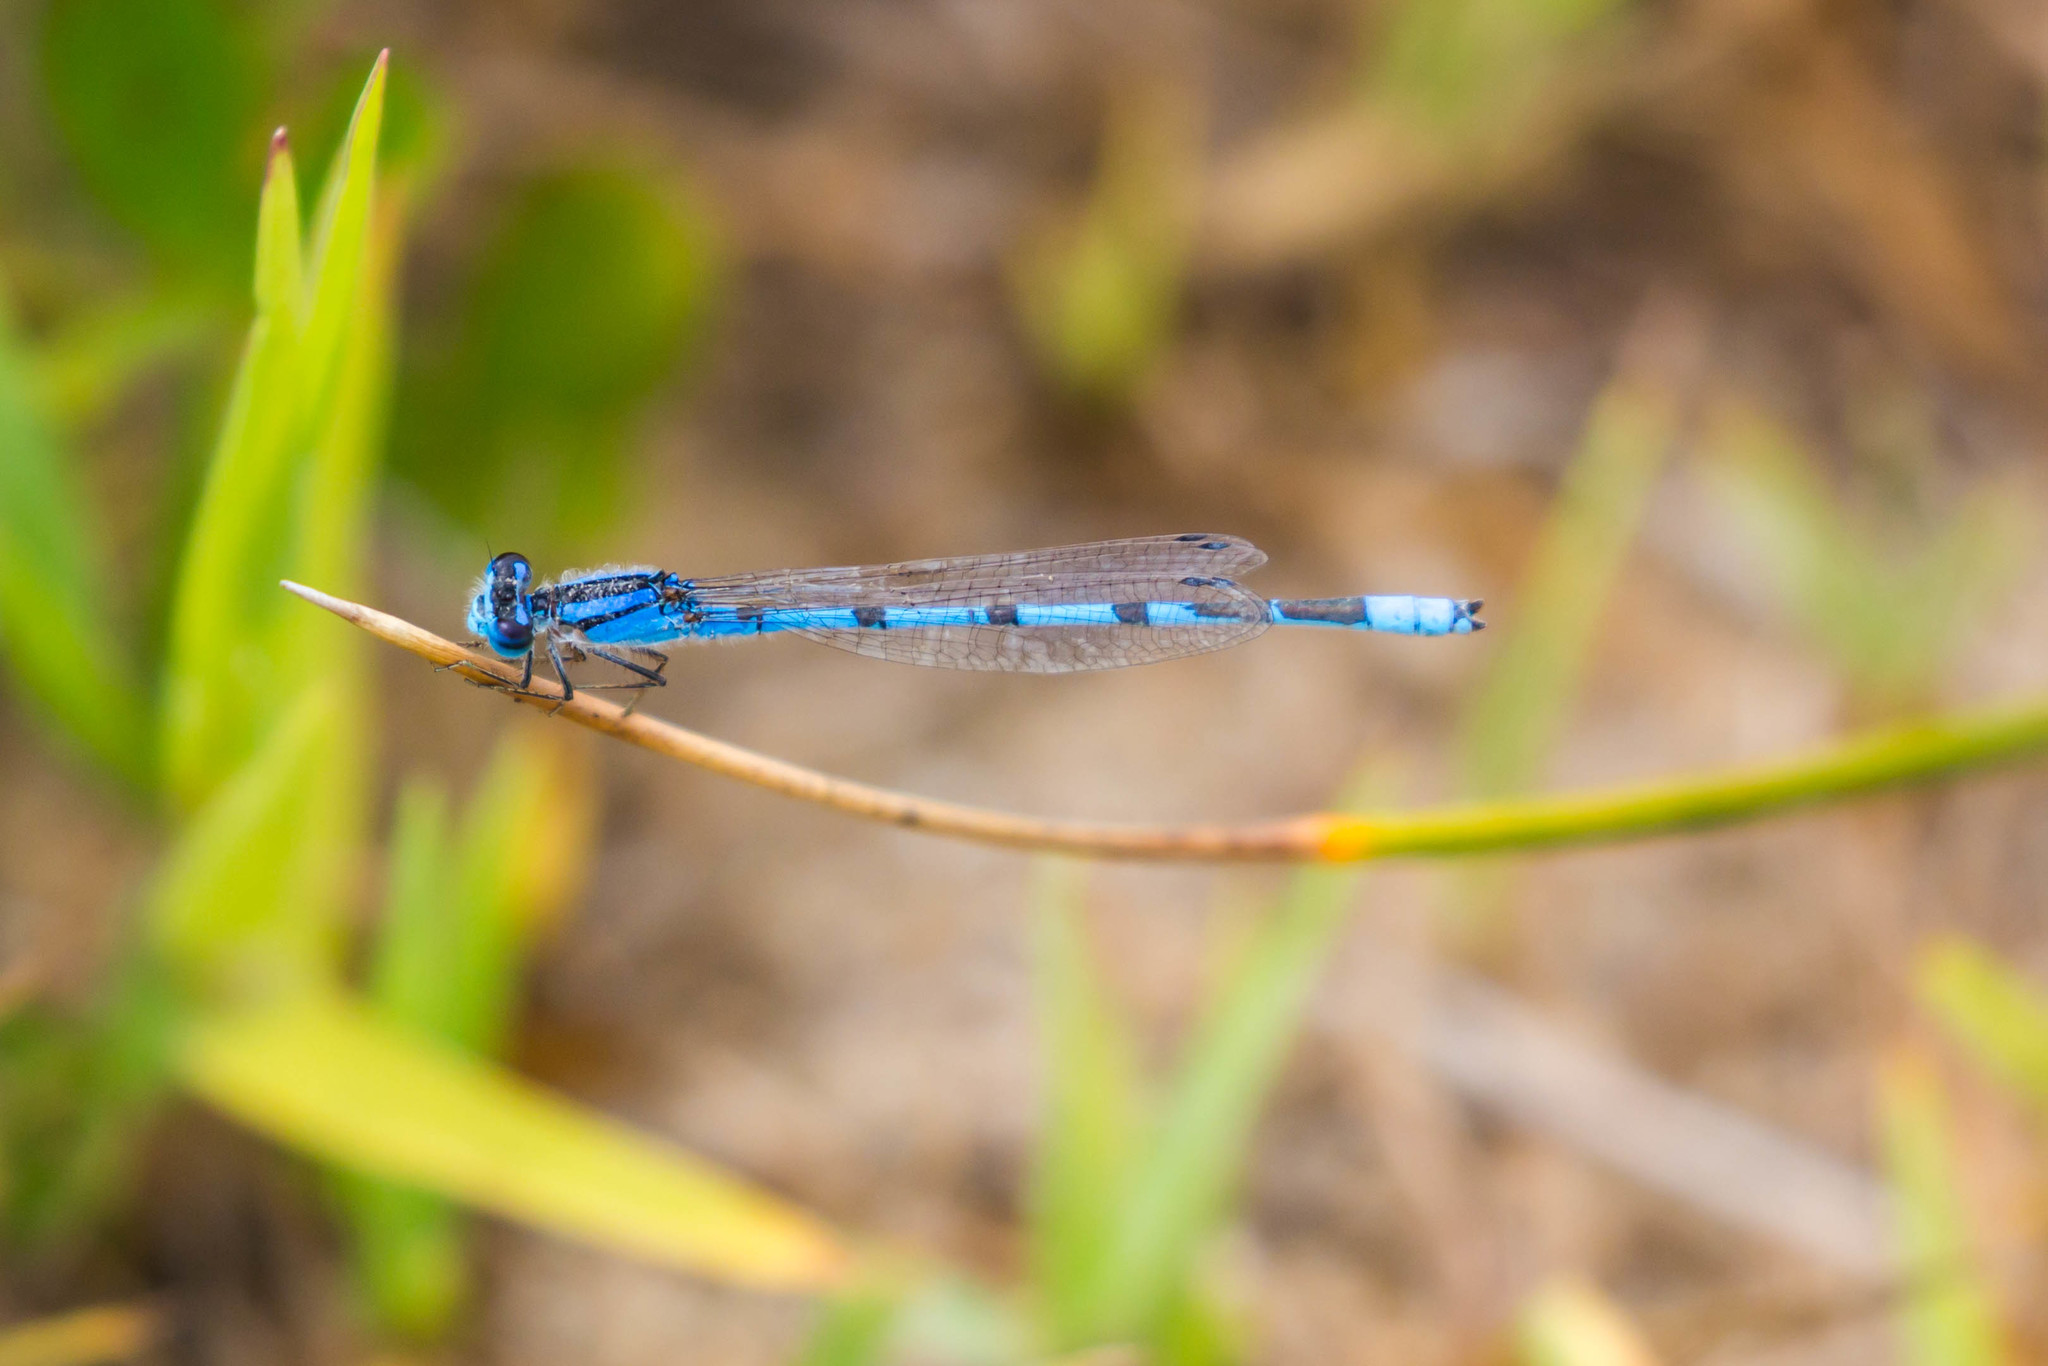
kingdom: Animalia
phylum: Arthropoda
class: Insecta
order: Odonata
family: Coenagrionidae
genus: Enallagma
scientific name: Enallagma civile
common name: Damselfly
